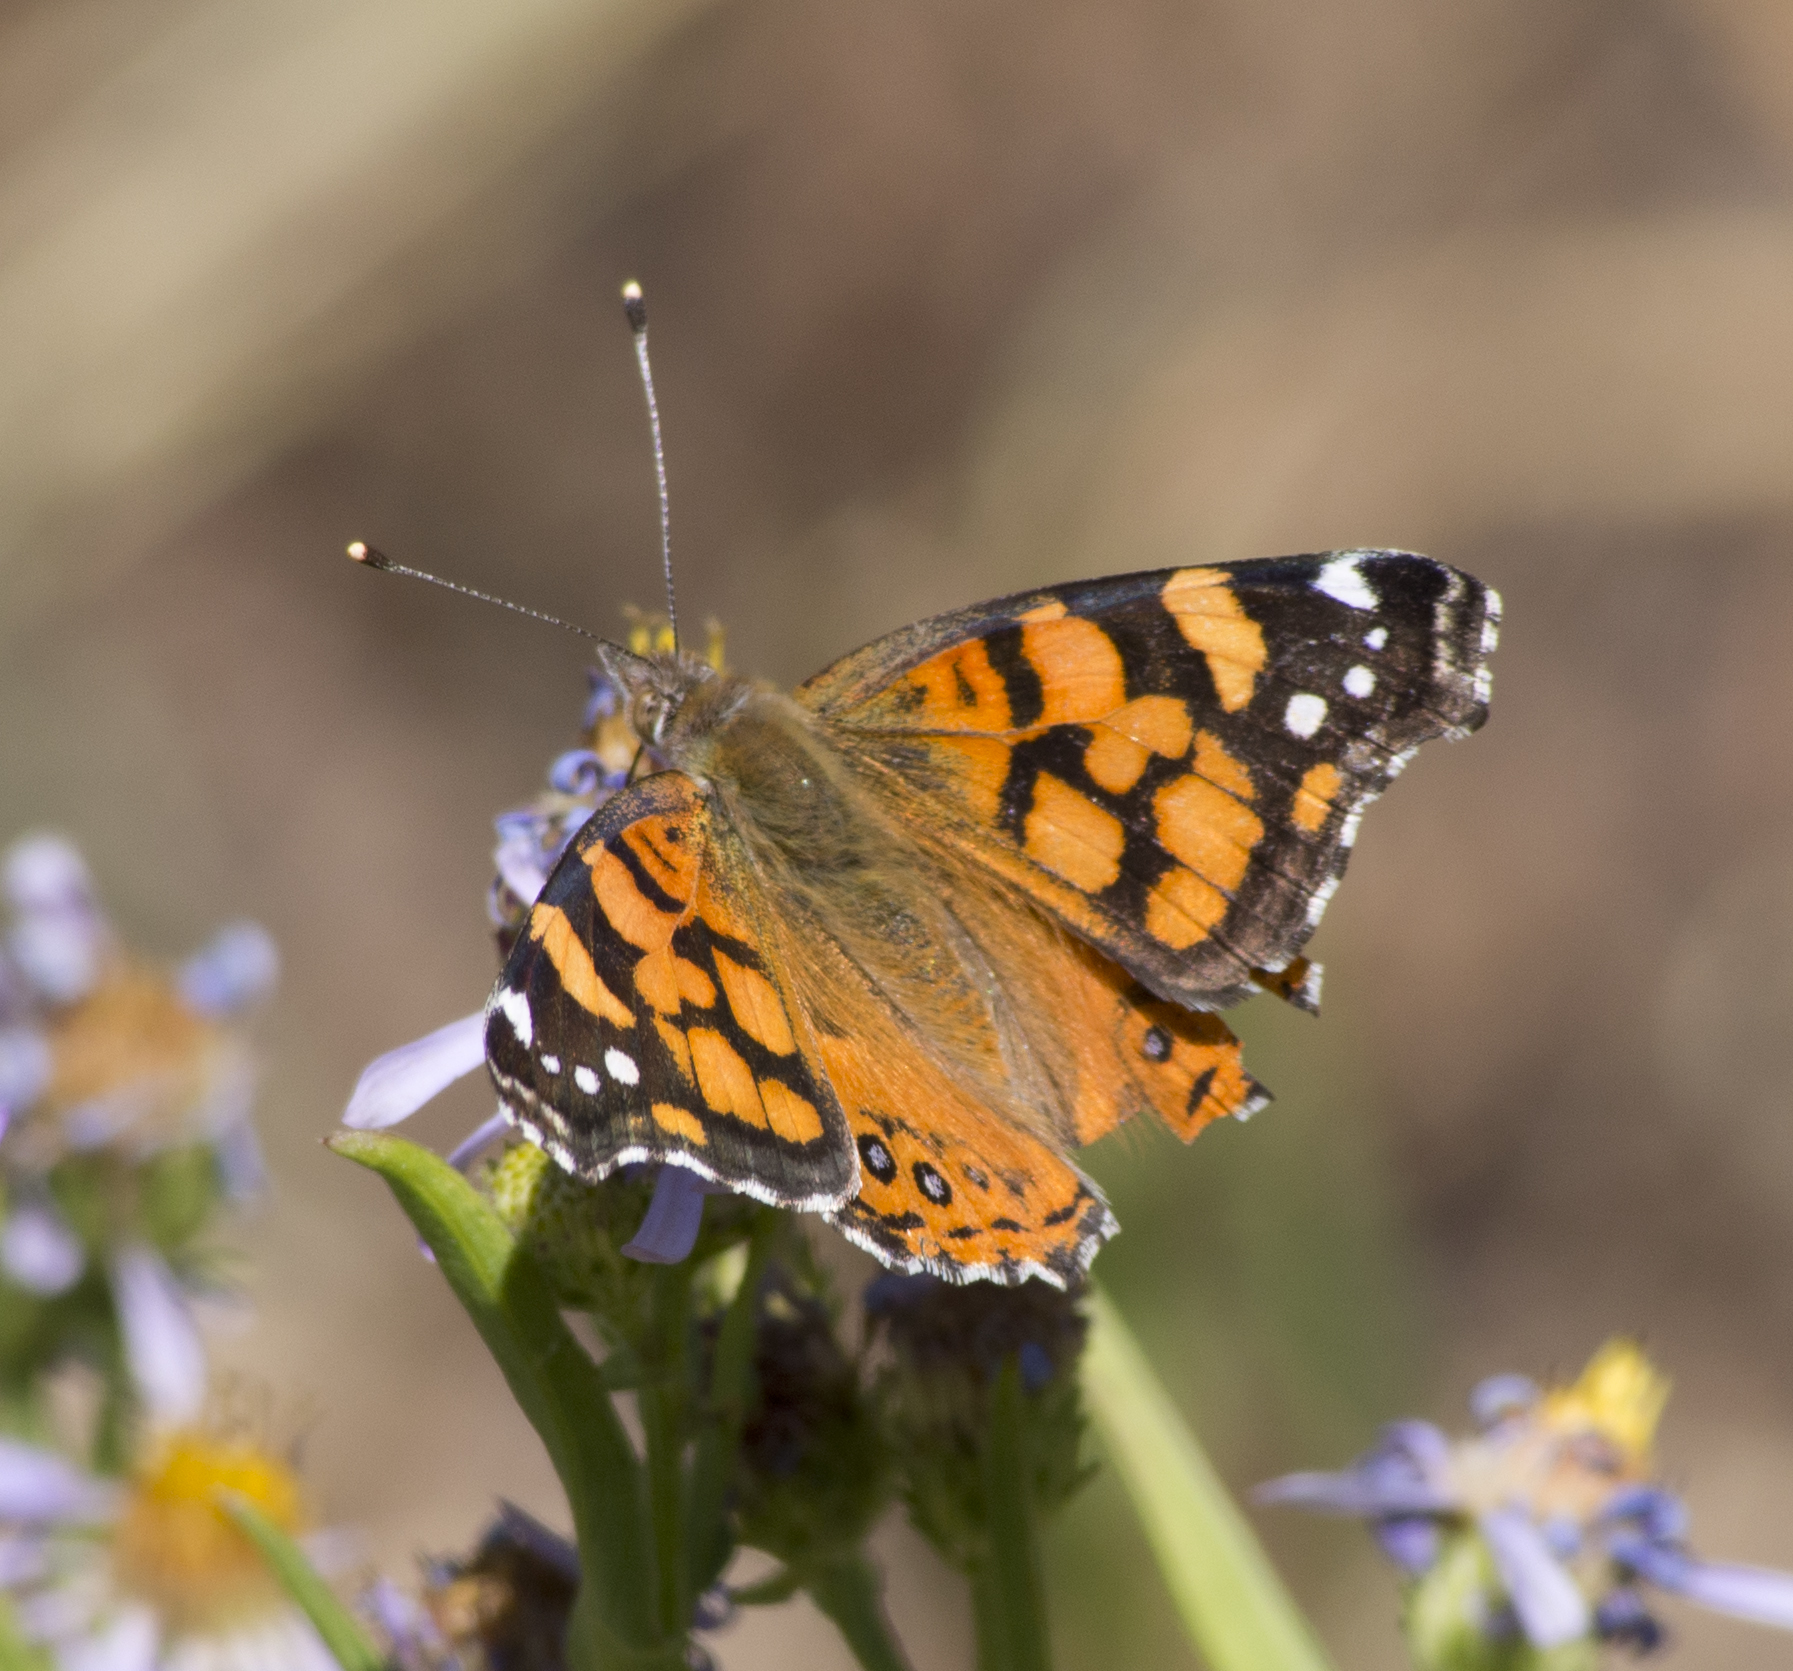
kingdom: Animalia
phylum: Arthropoda
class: Insecta
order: Lepidoptera
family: Nymphalidae
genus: Vanessa
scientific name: Vanessa annabella
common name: West coast lady
